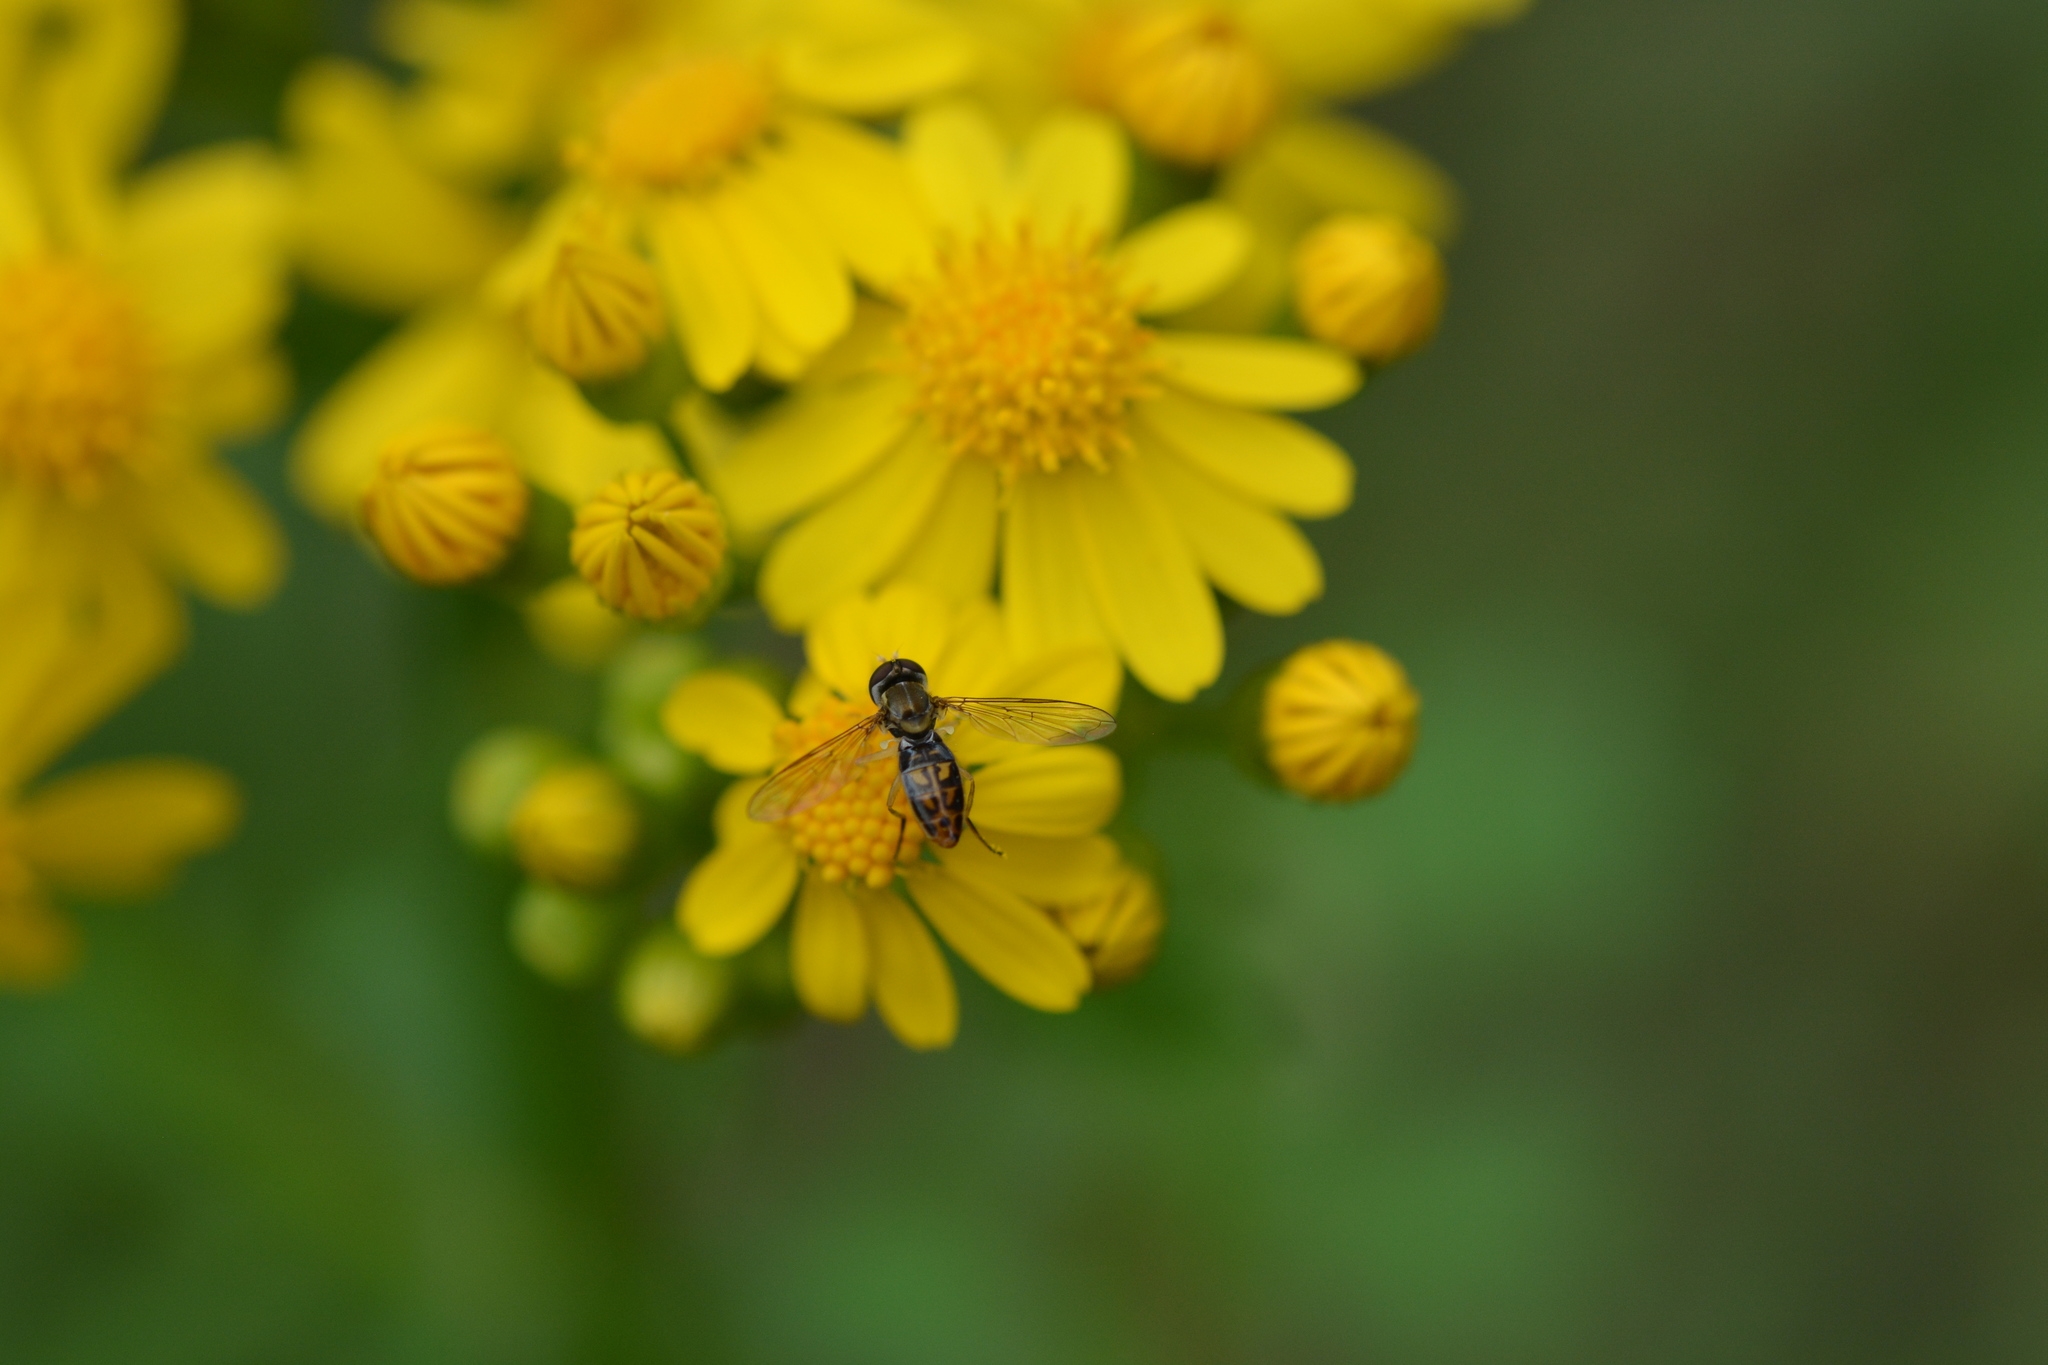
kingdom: Animalia
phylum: Arthropoda
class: Insecta
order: Diptera
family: Syrphidae
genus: Toxomerus
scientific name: Toxomerus marginatus
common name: Syrphid fly
